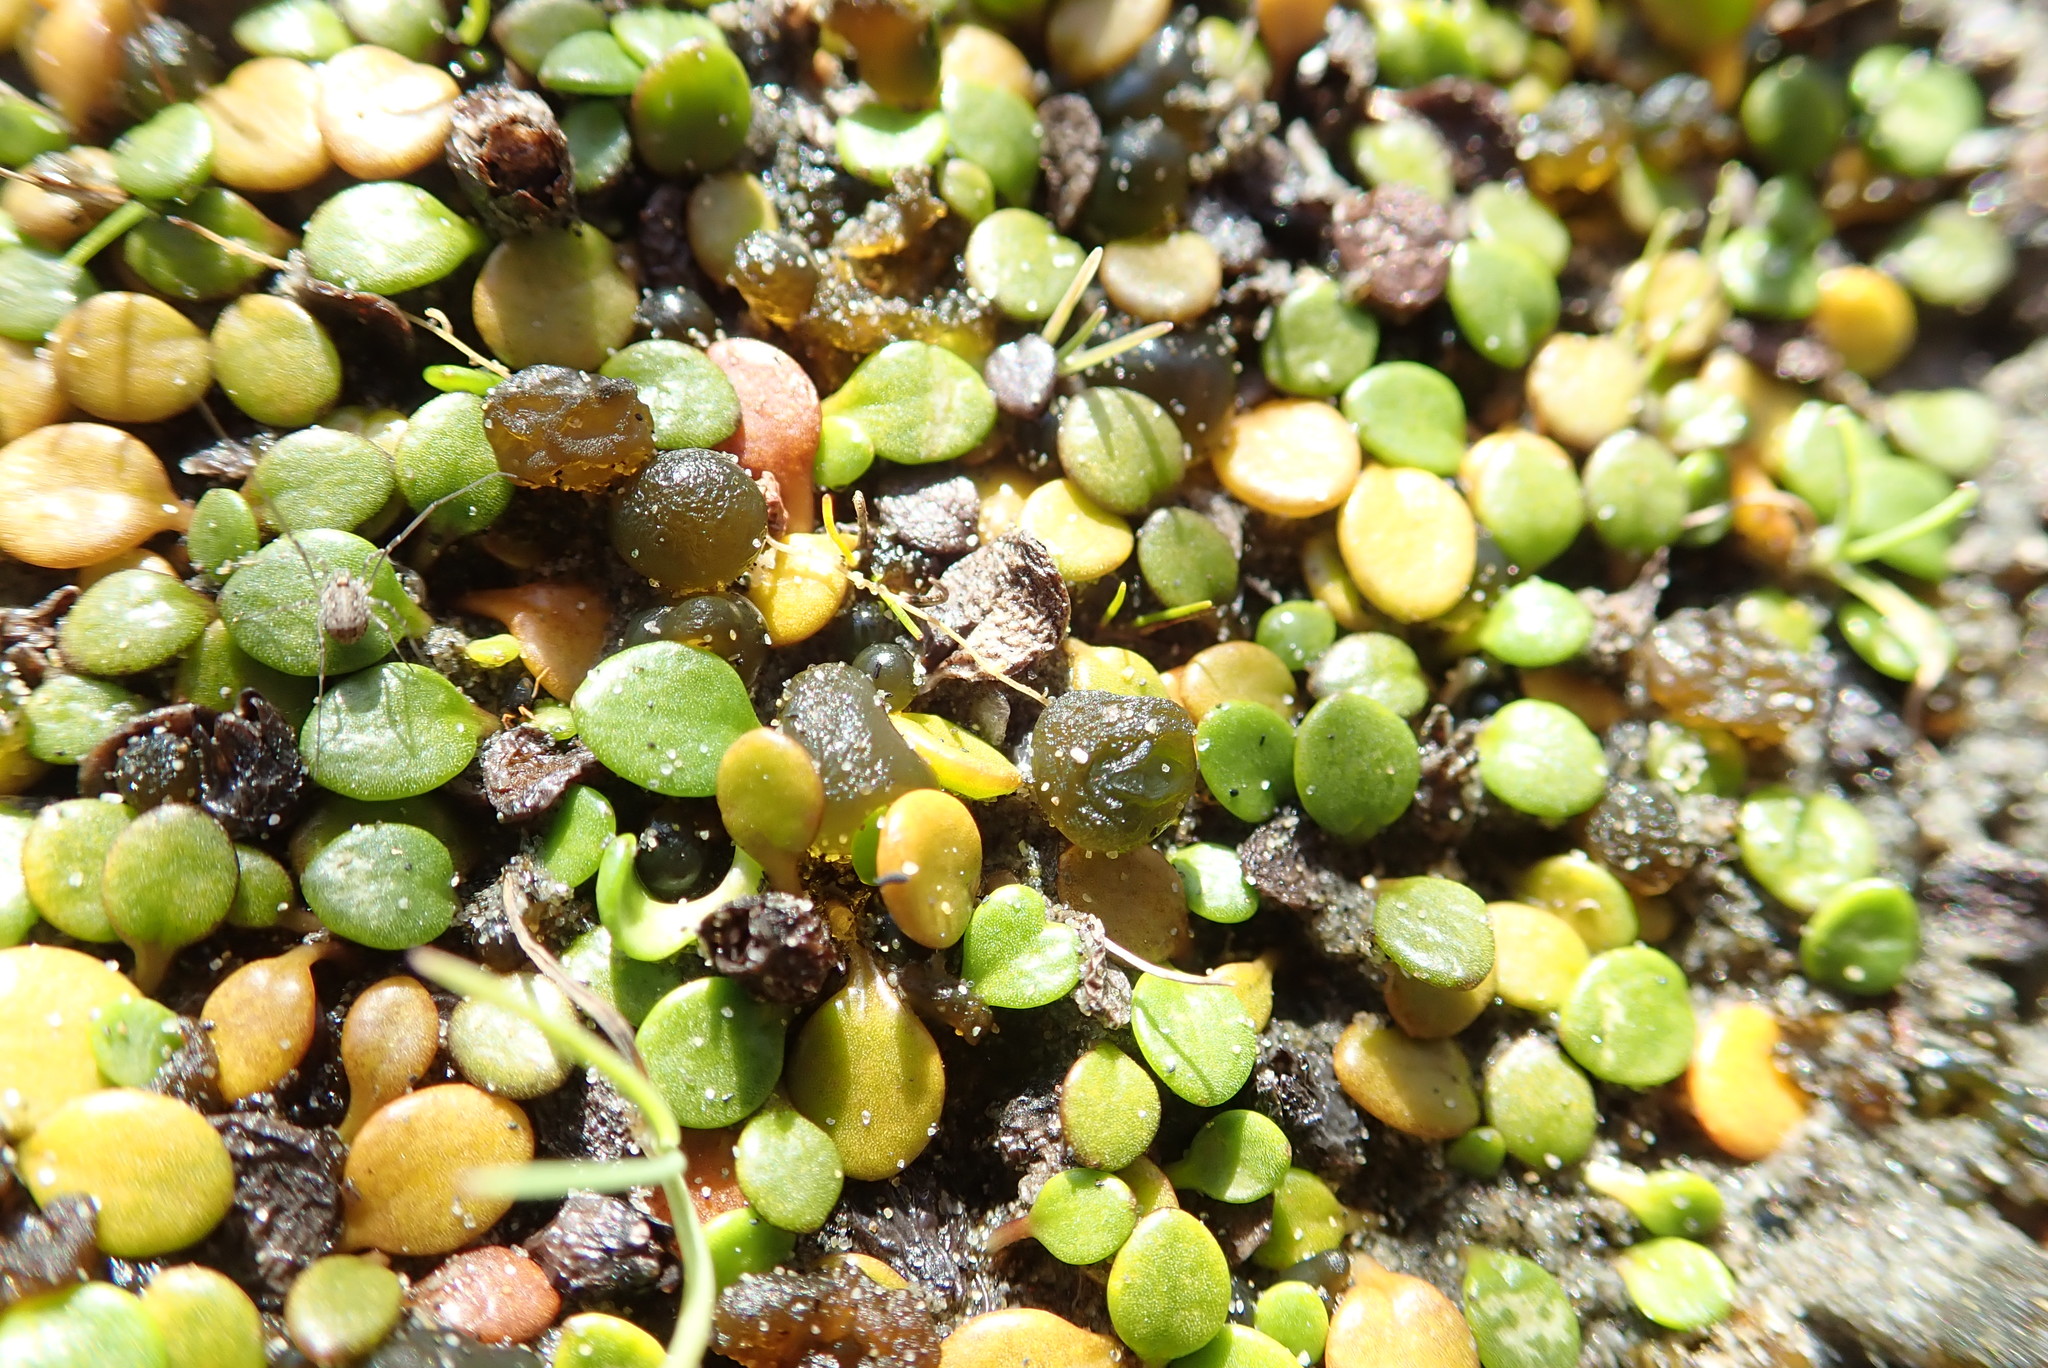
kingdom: Bacteria
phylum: Cyanobacteria
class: Cyanobacteriia
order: Cyanobacteriales
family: Nostocaceae
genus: Nostoc
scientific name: Nostoc commune
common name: Star jelly
